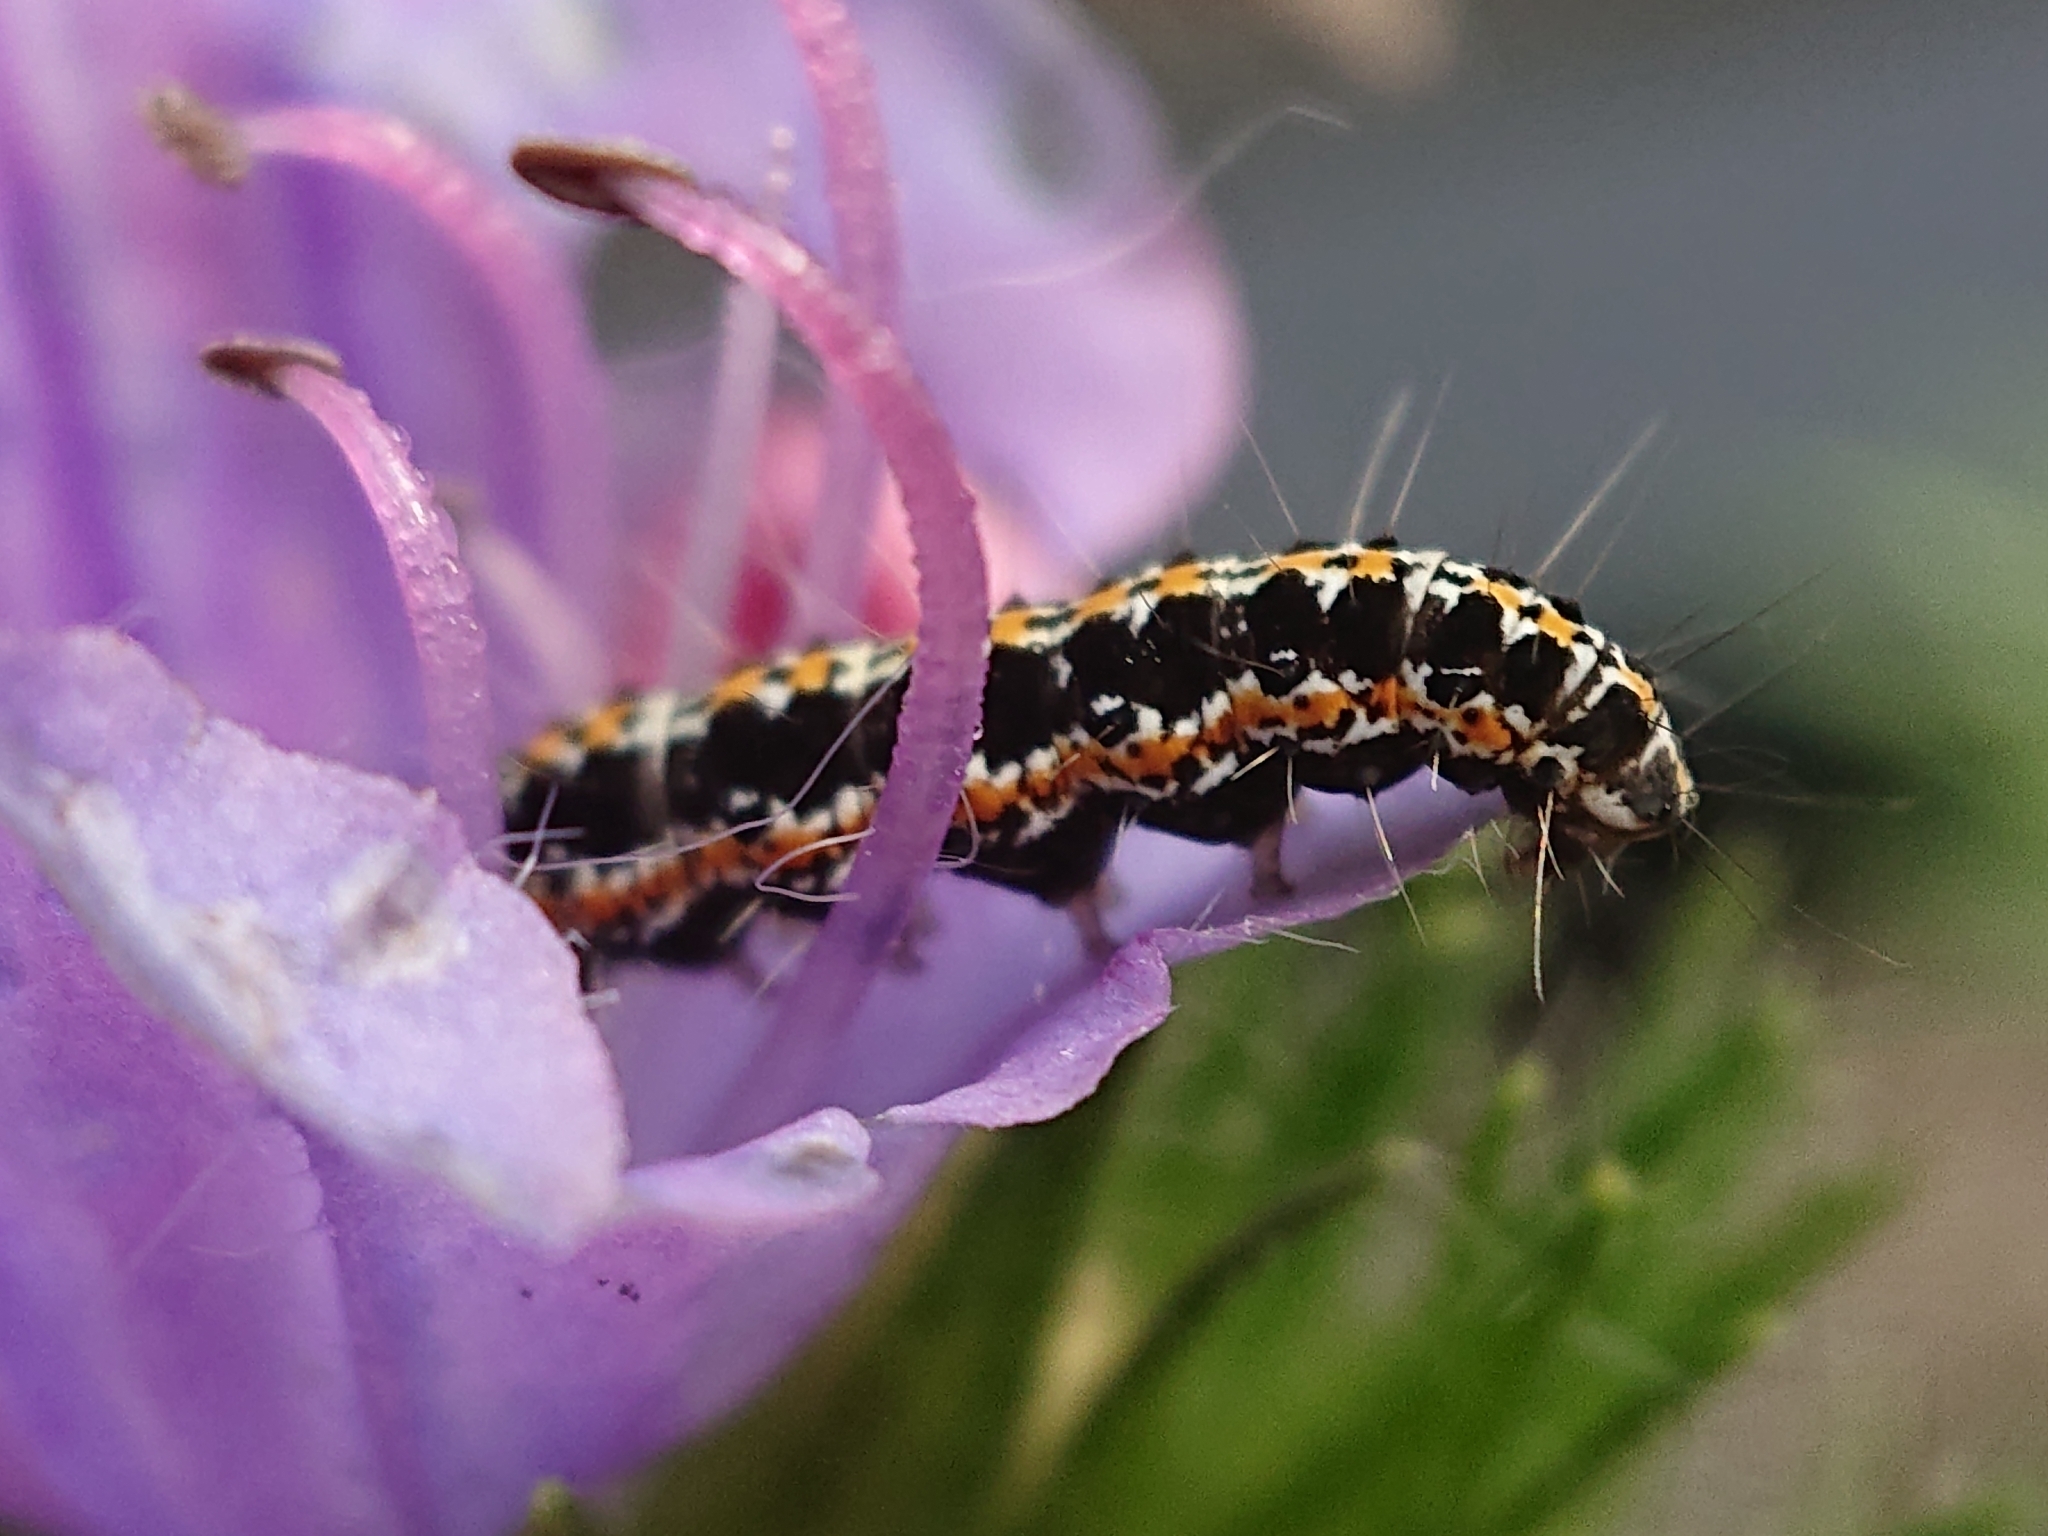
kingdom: Animalia
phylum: Arthropoda
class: Insecta
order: Lepidoptera
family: Ethmiidae
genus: Ethmia
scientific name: Ethmia bipunctella
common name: Bordered ermel
